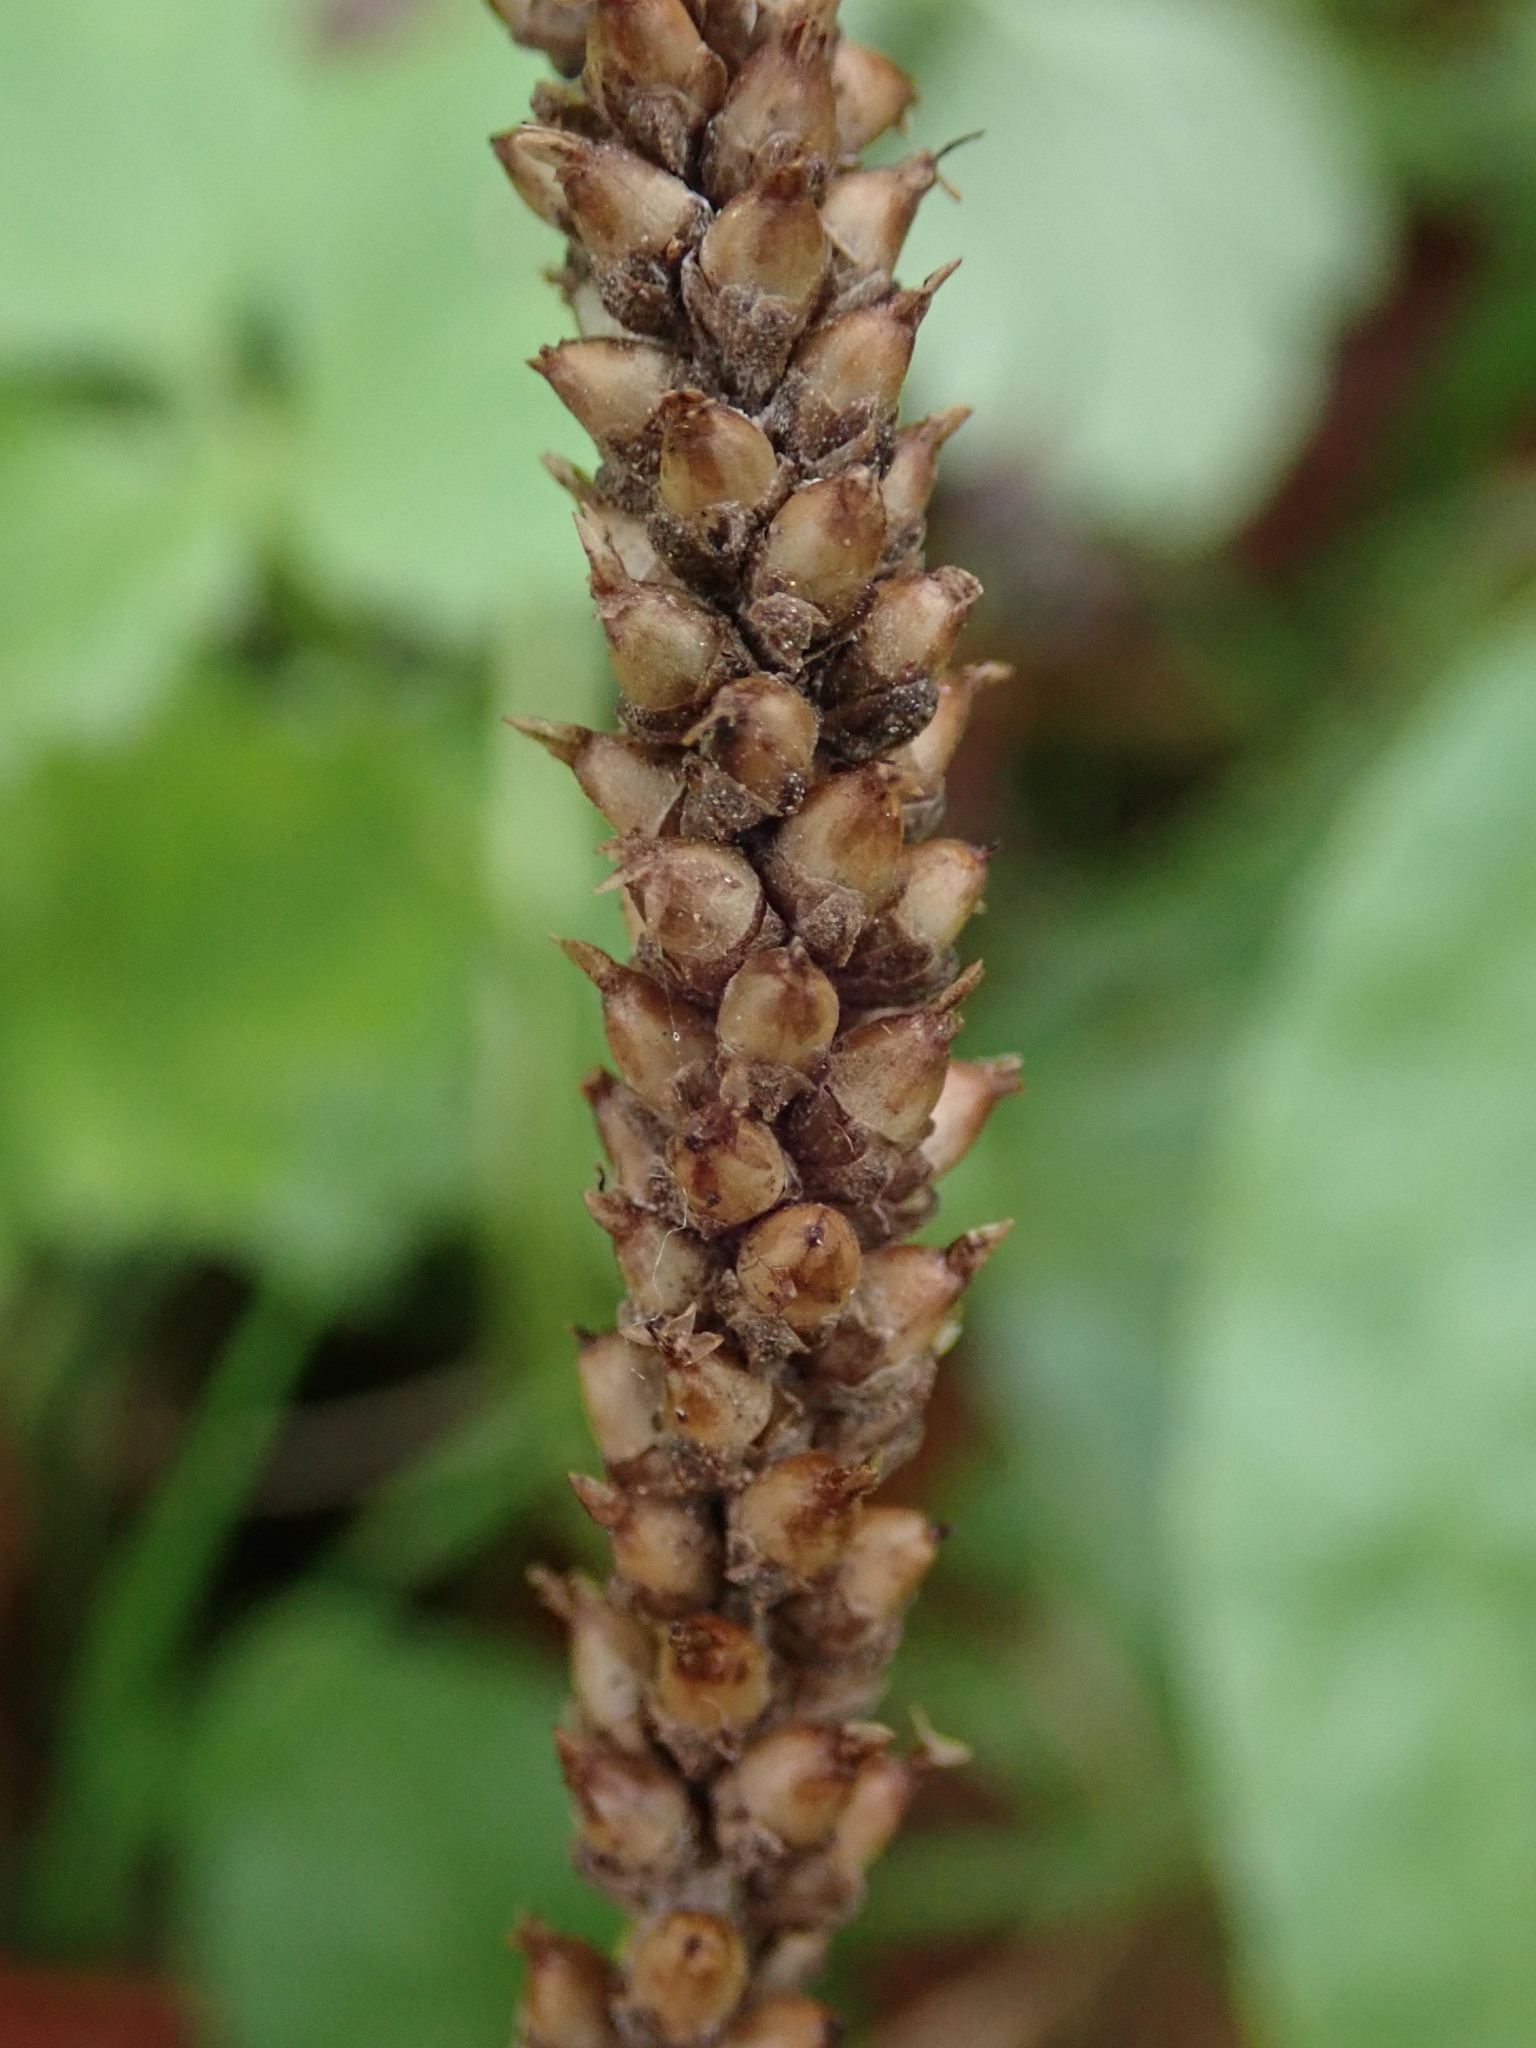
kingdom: Plantae
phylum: Tracheophyta
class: Magnoliopsida
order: Lamiales
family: Plantaginaceae
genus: Plantago
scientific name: Plantago major
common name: Common plantain
